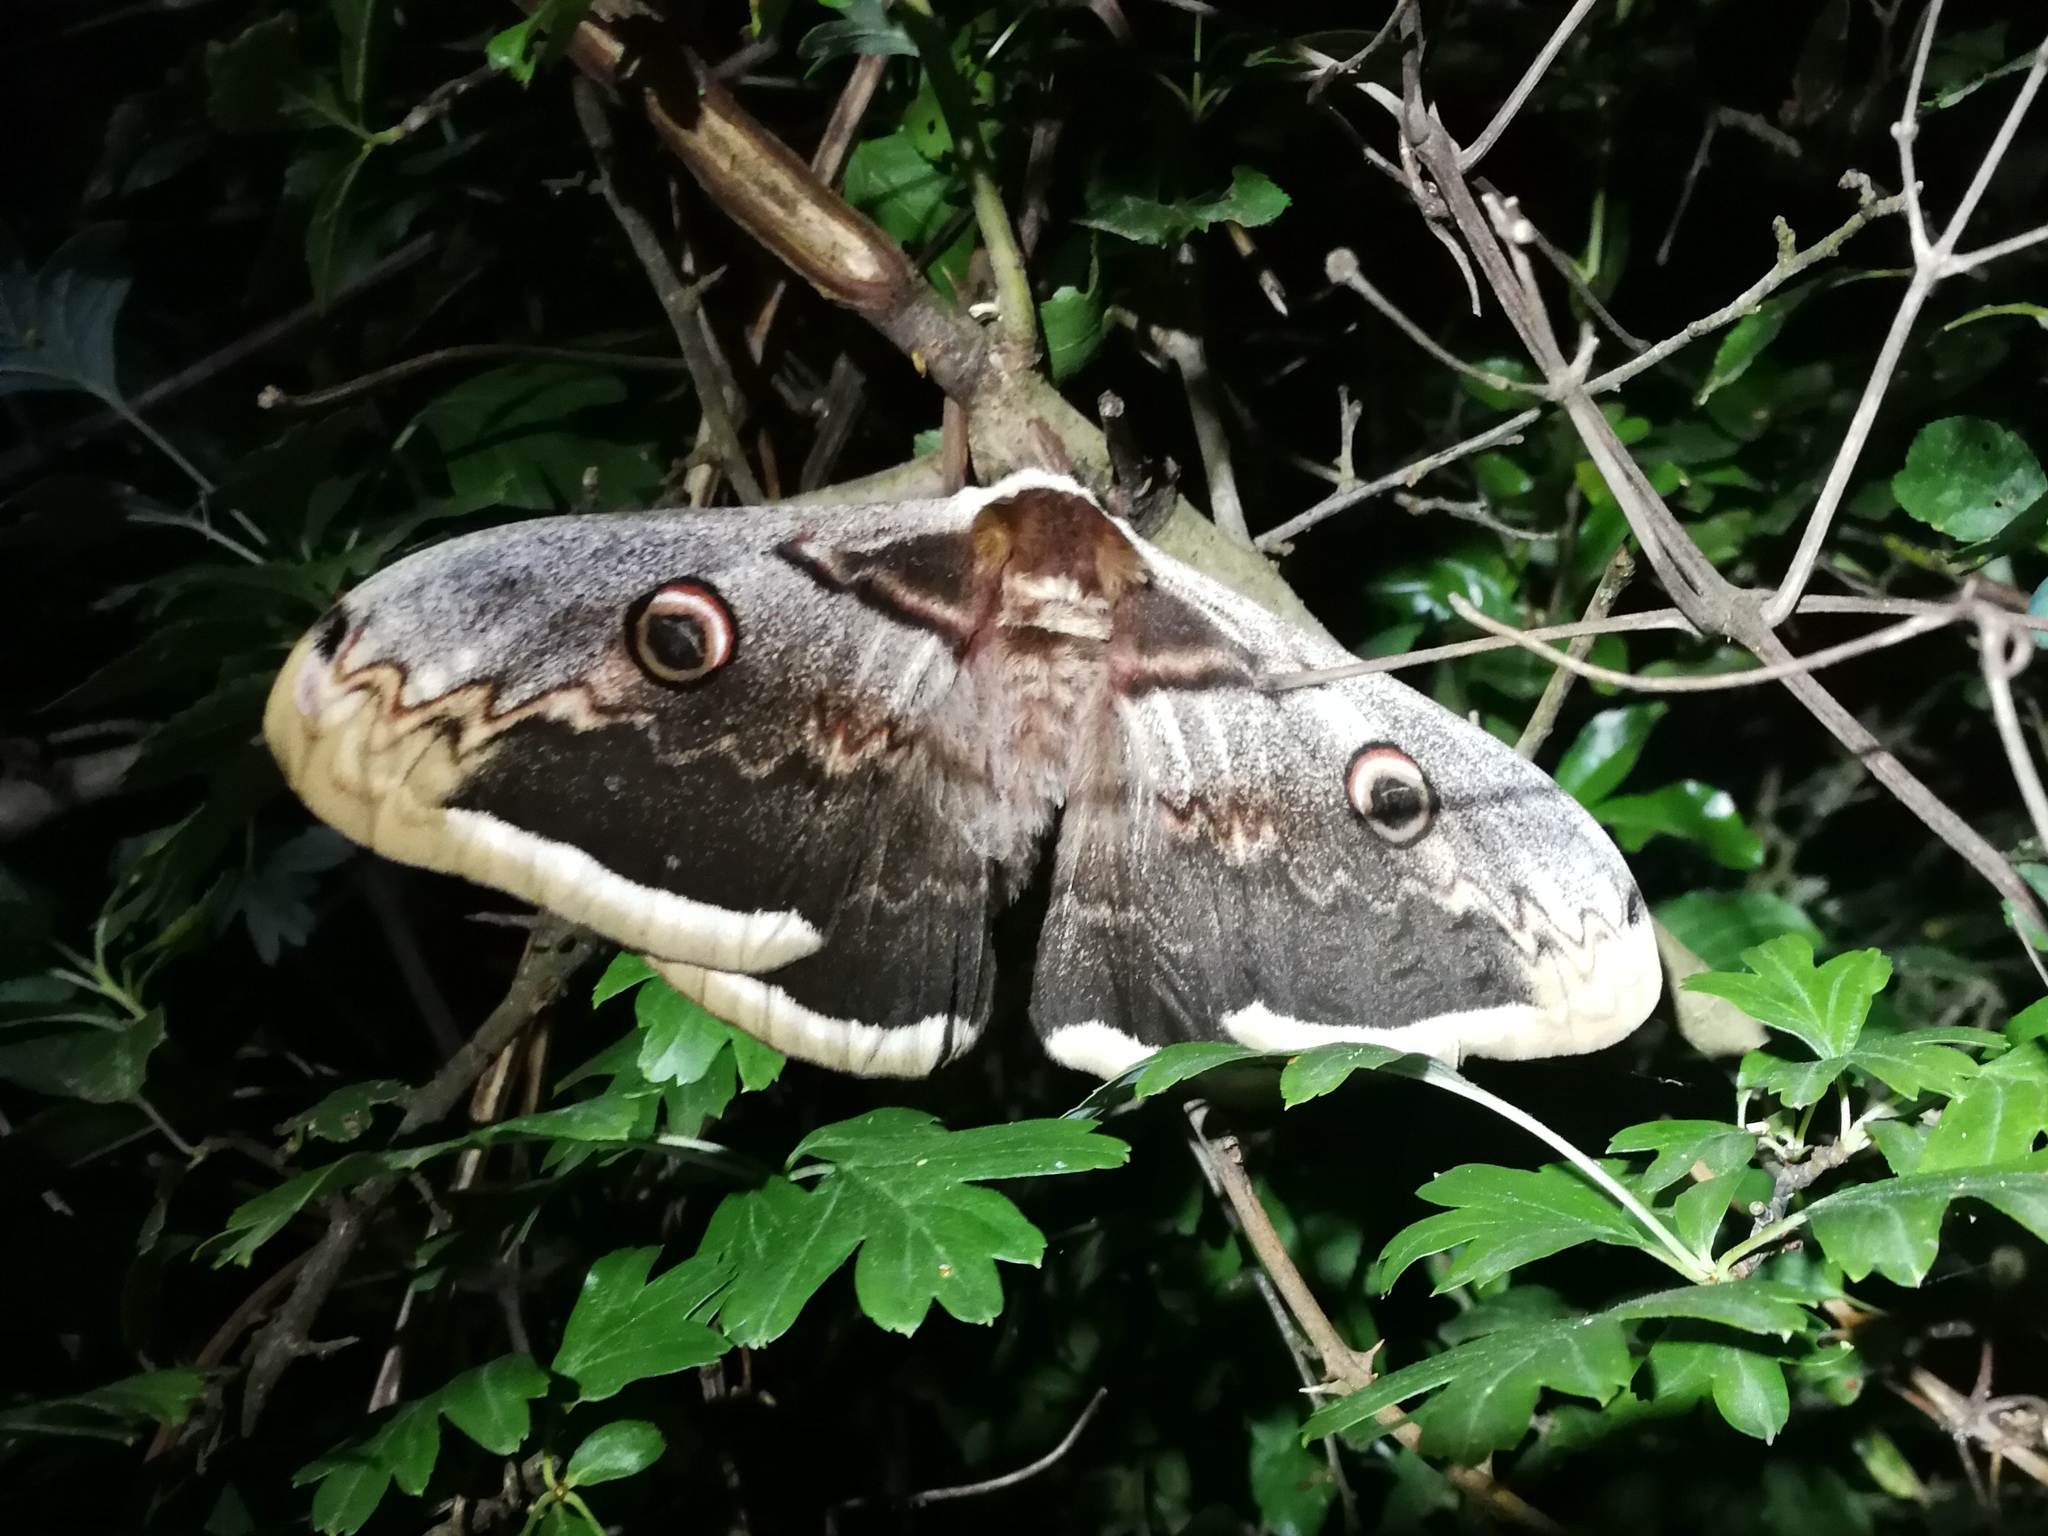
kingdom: Animalia
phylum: Arthropoda
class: Insecta
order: Lepidoptera
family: Saturniidae
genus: Saturnia
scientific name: Saturnia pyri
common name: Great peacock moth
